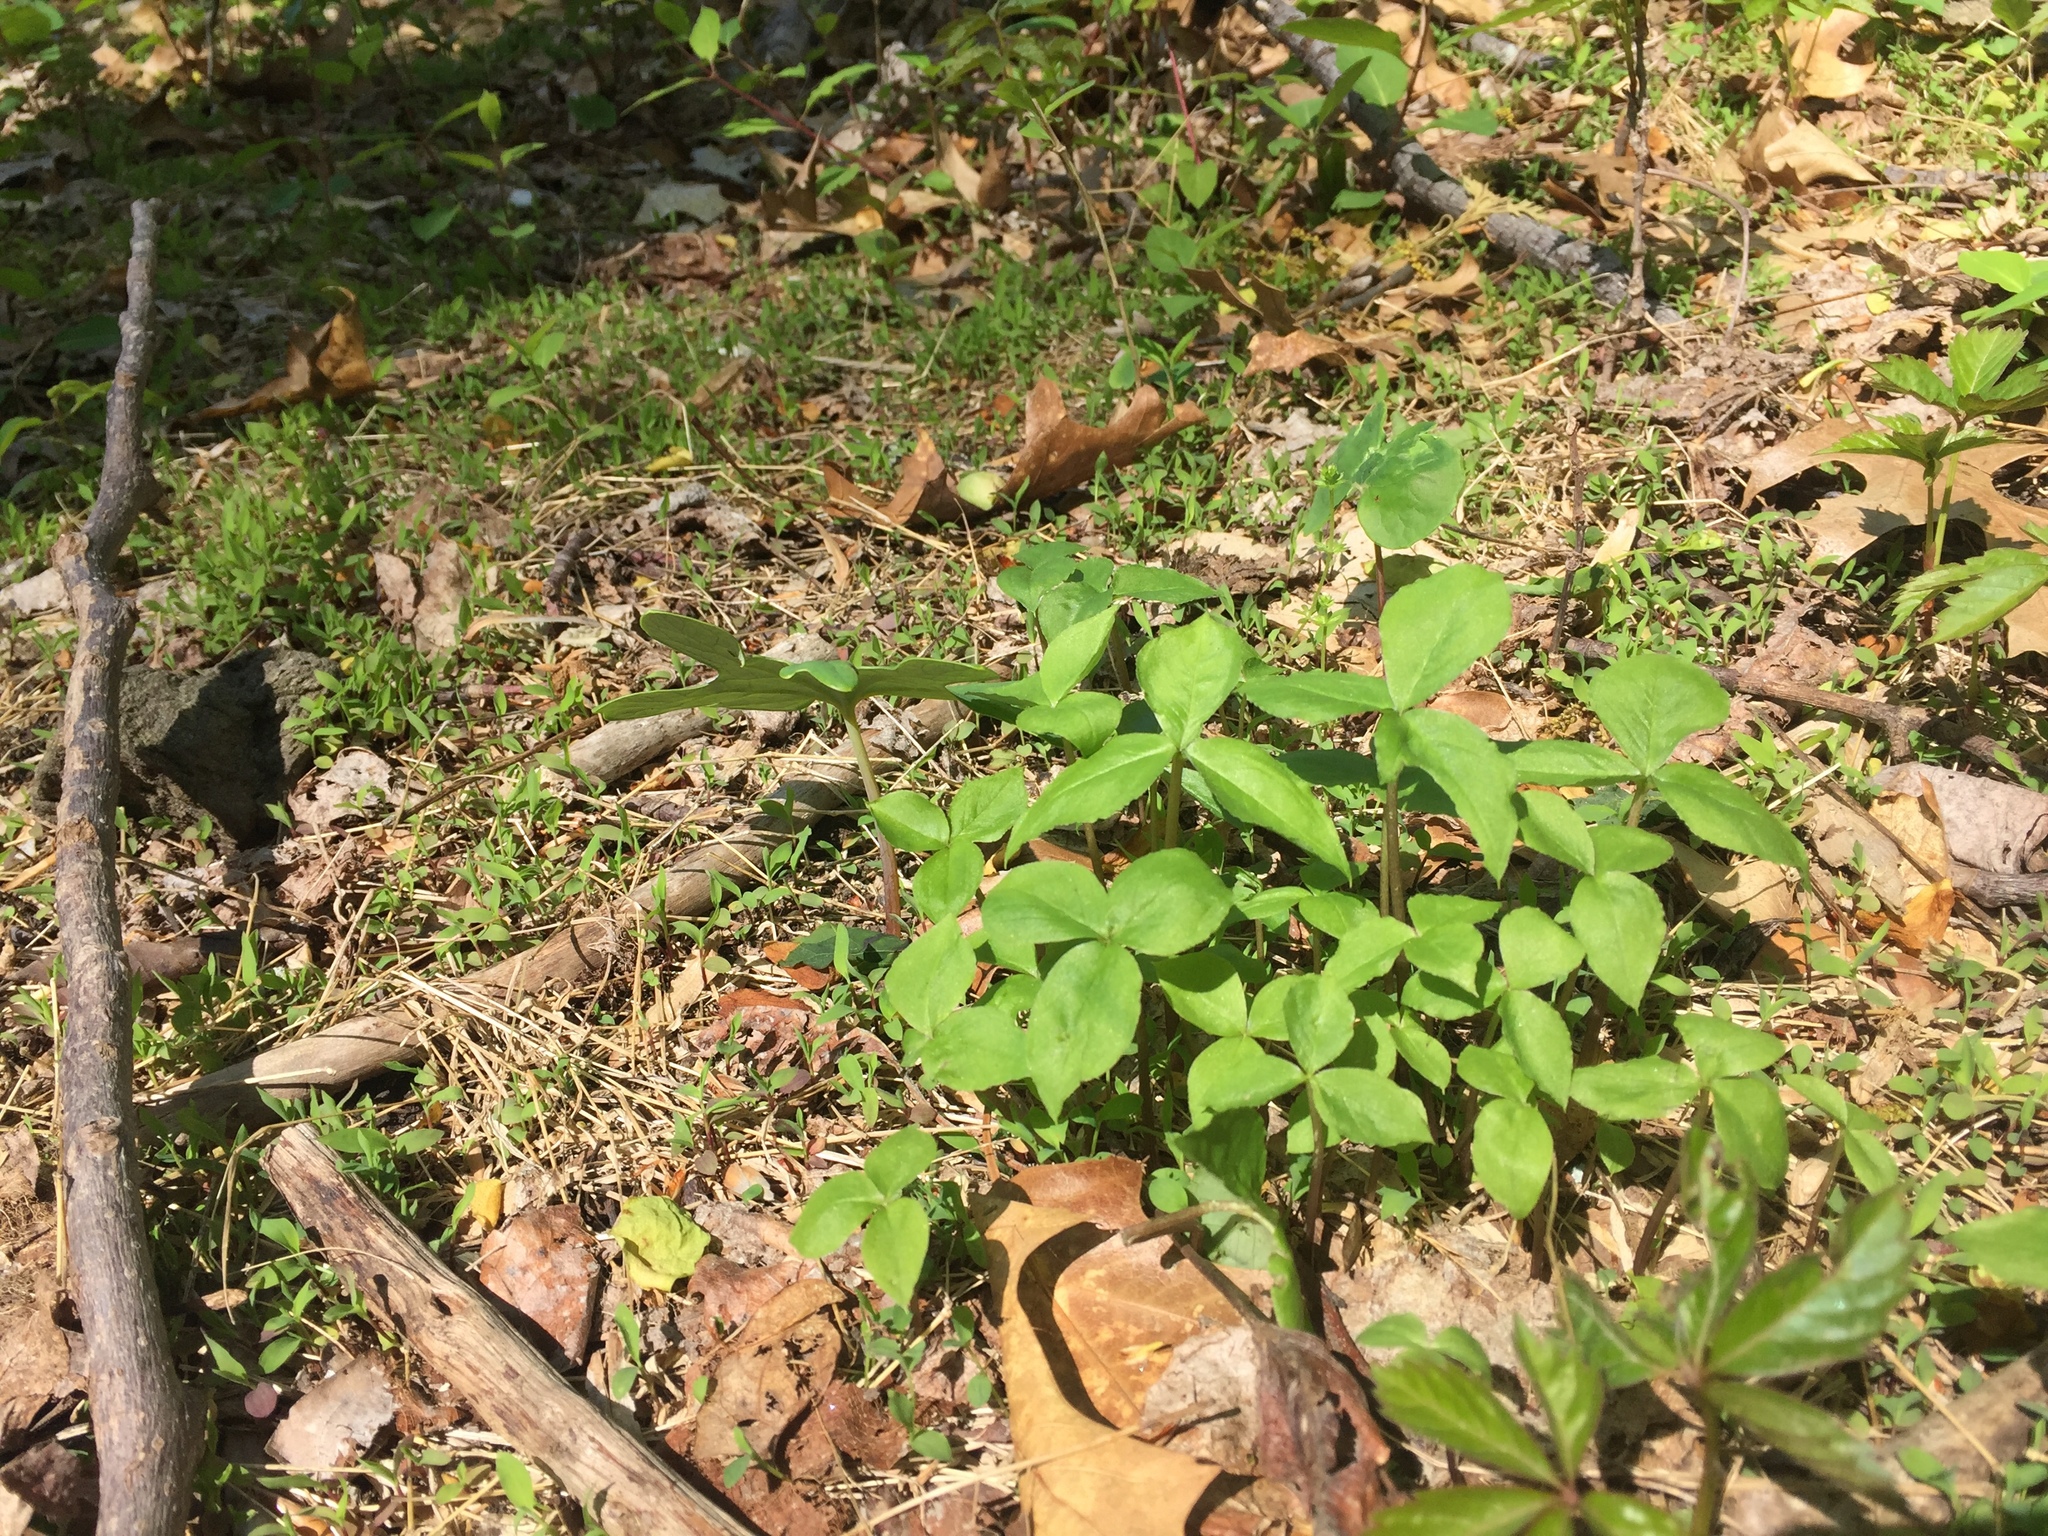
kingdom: Plantae
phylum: Tracheophyta
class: Liliopsida
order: Alismatales
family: Araceae
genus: Arisaema
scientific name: Arisaema triphyllum
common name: Jack-in-the-pulpit
